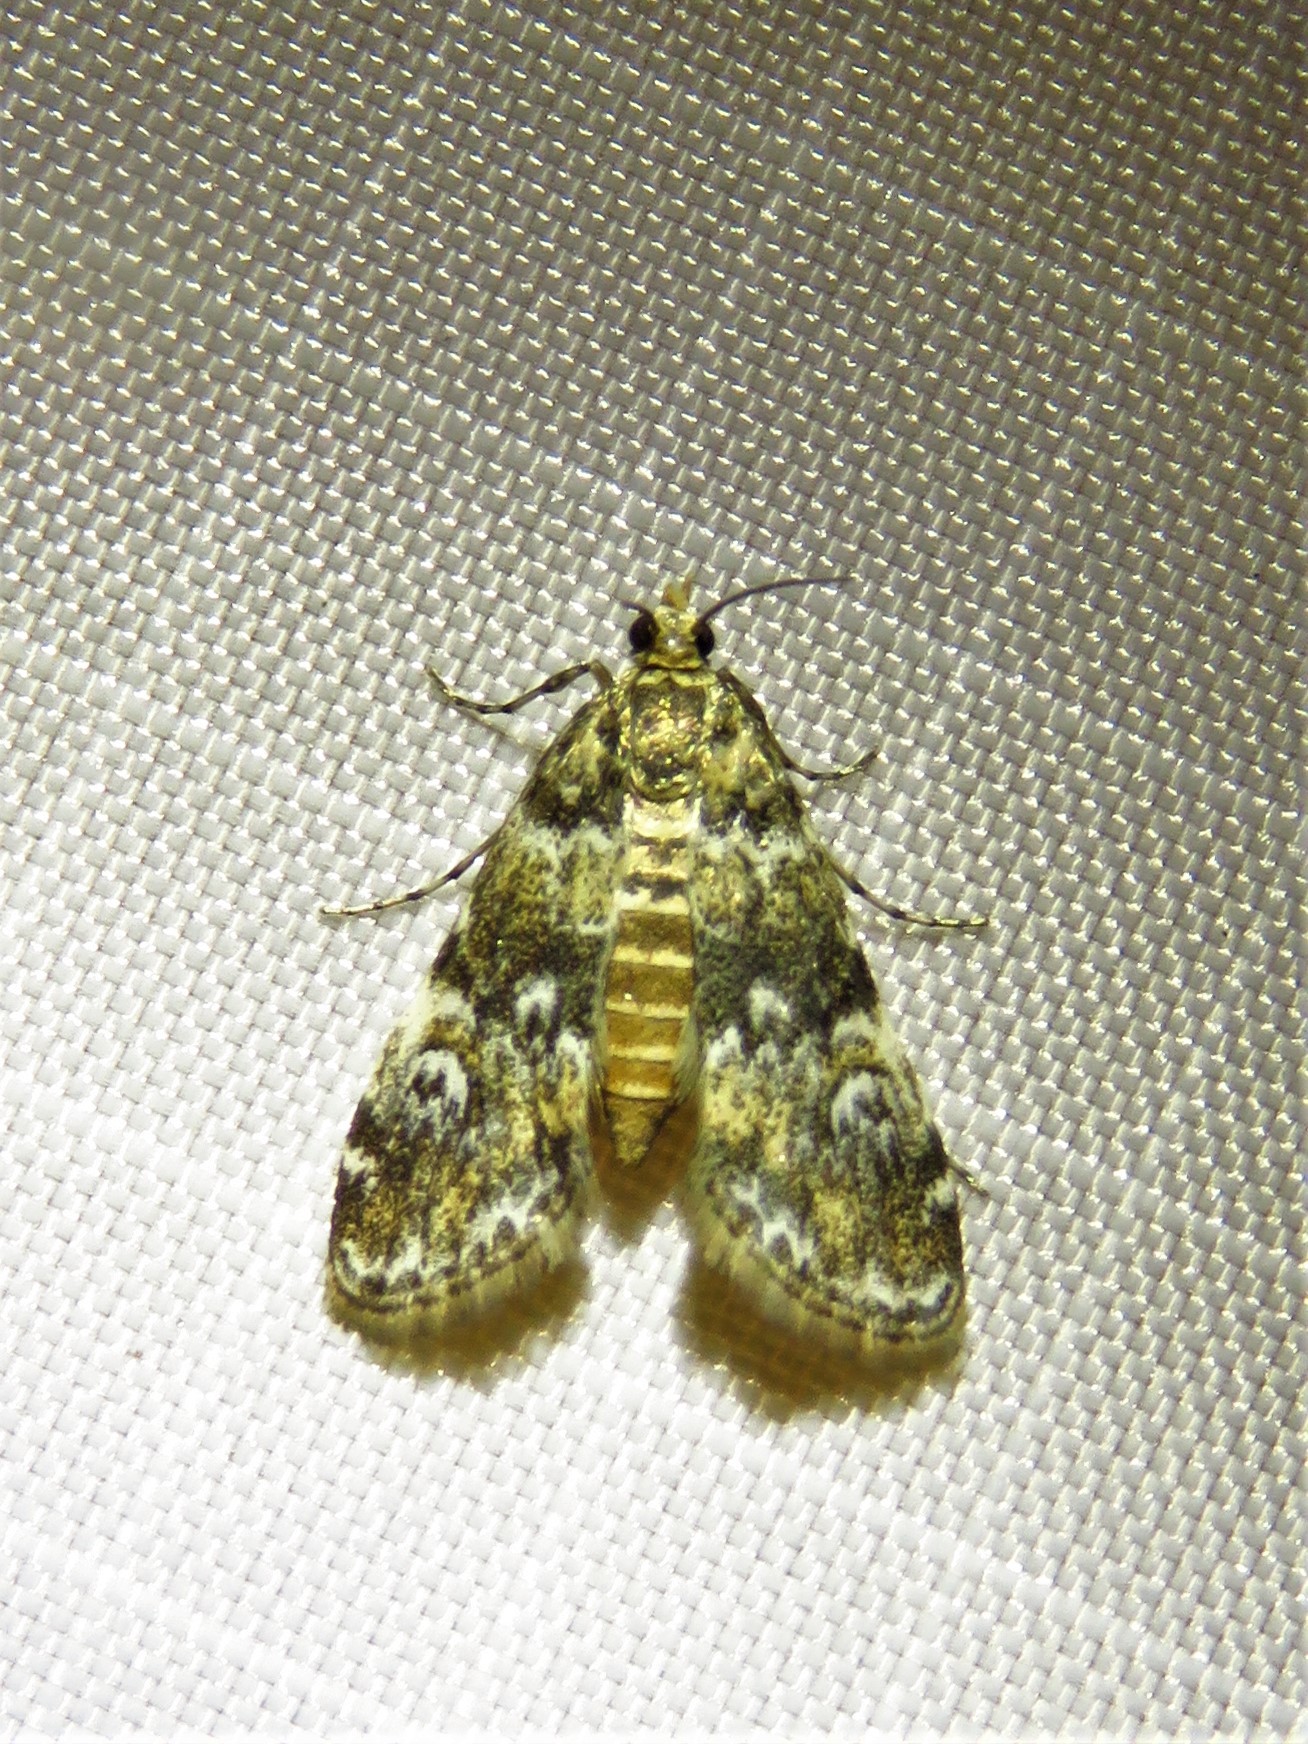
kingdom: Animalia
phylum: Arthropoda
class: Insecta
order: Lepidoptera
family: Crambidae
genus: Elophila
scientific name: Elophila obliteralis
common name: Waterlily leafcutter moth
